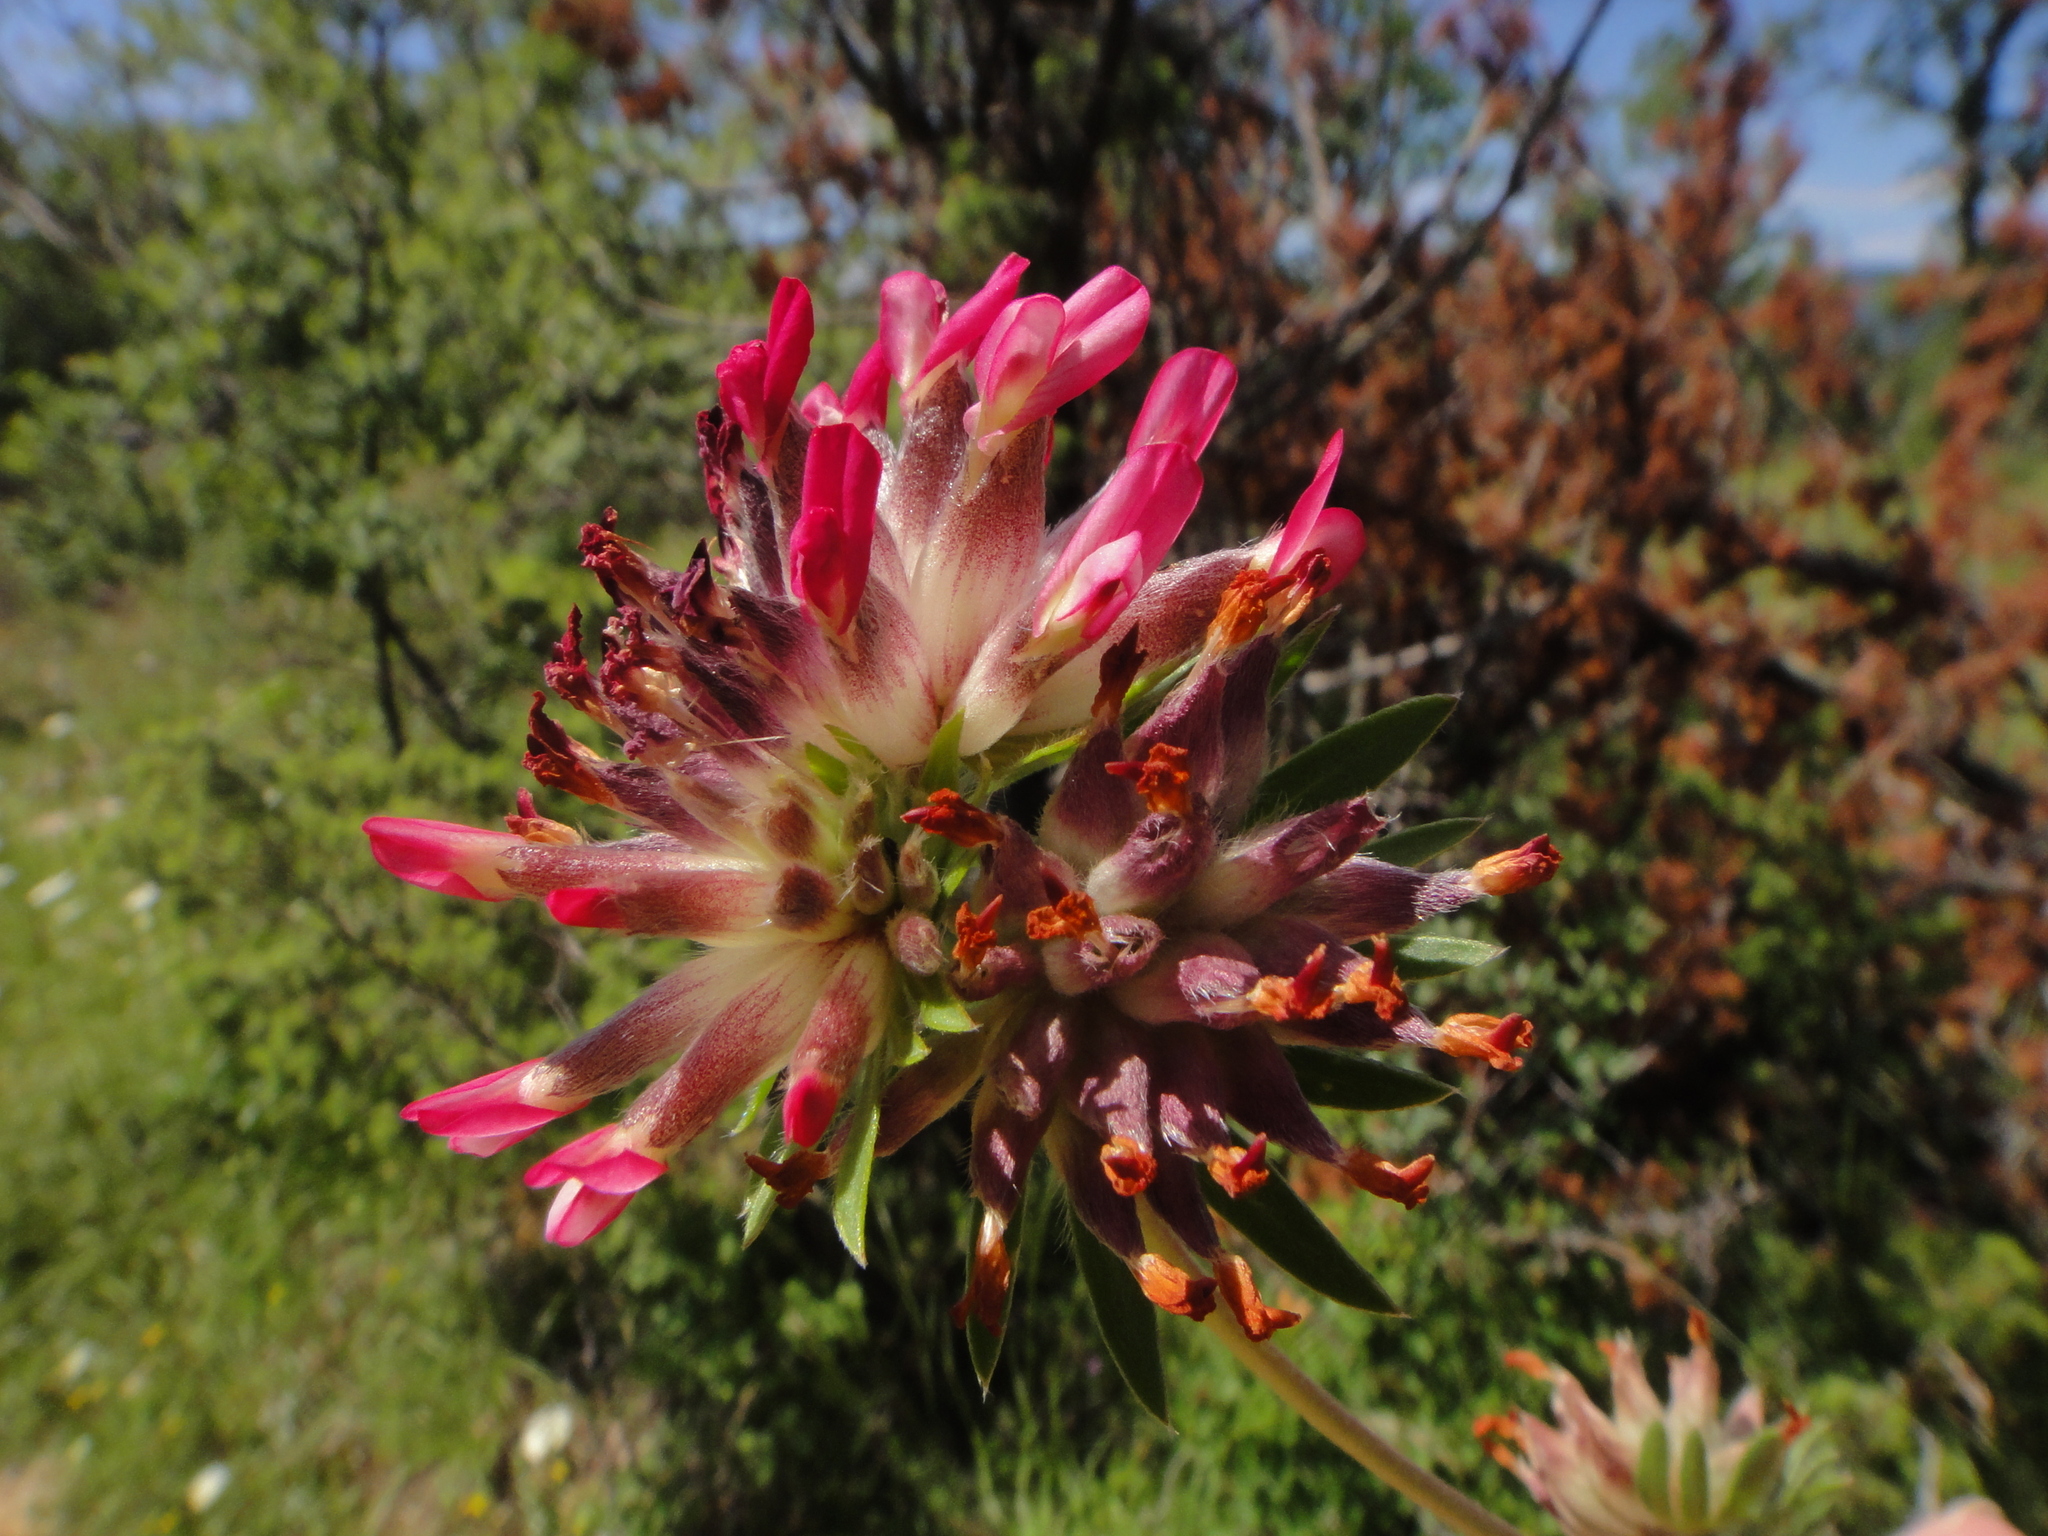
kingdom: Plantae
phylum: Tracheophyta
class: Magnoliopsida
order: Fabales
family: Fabaceae
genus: Anthyllis
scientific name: Anthyllis vulneraria
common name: Kidney vetch
